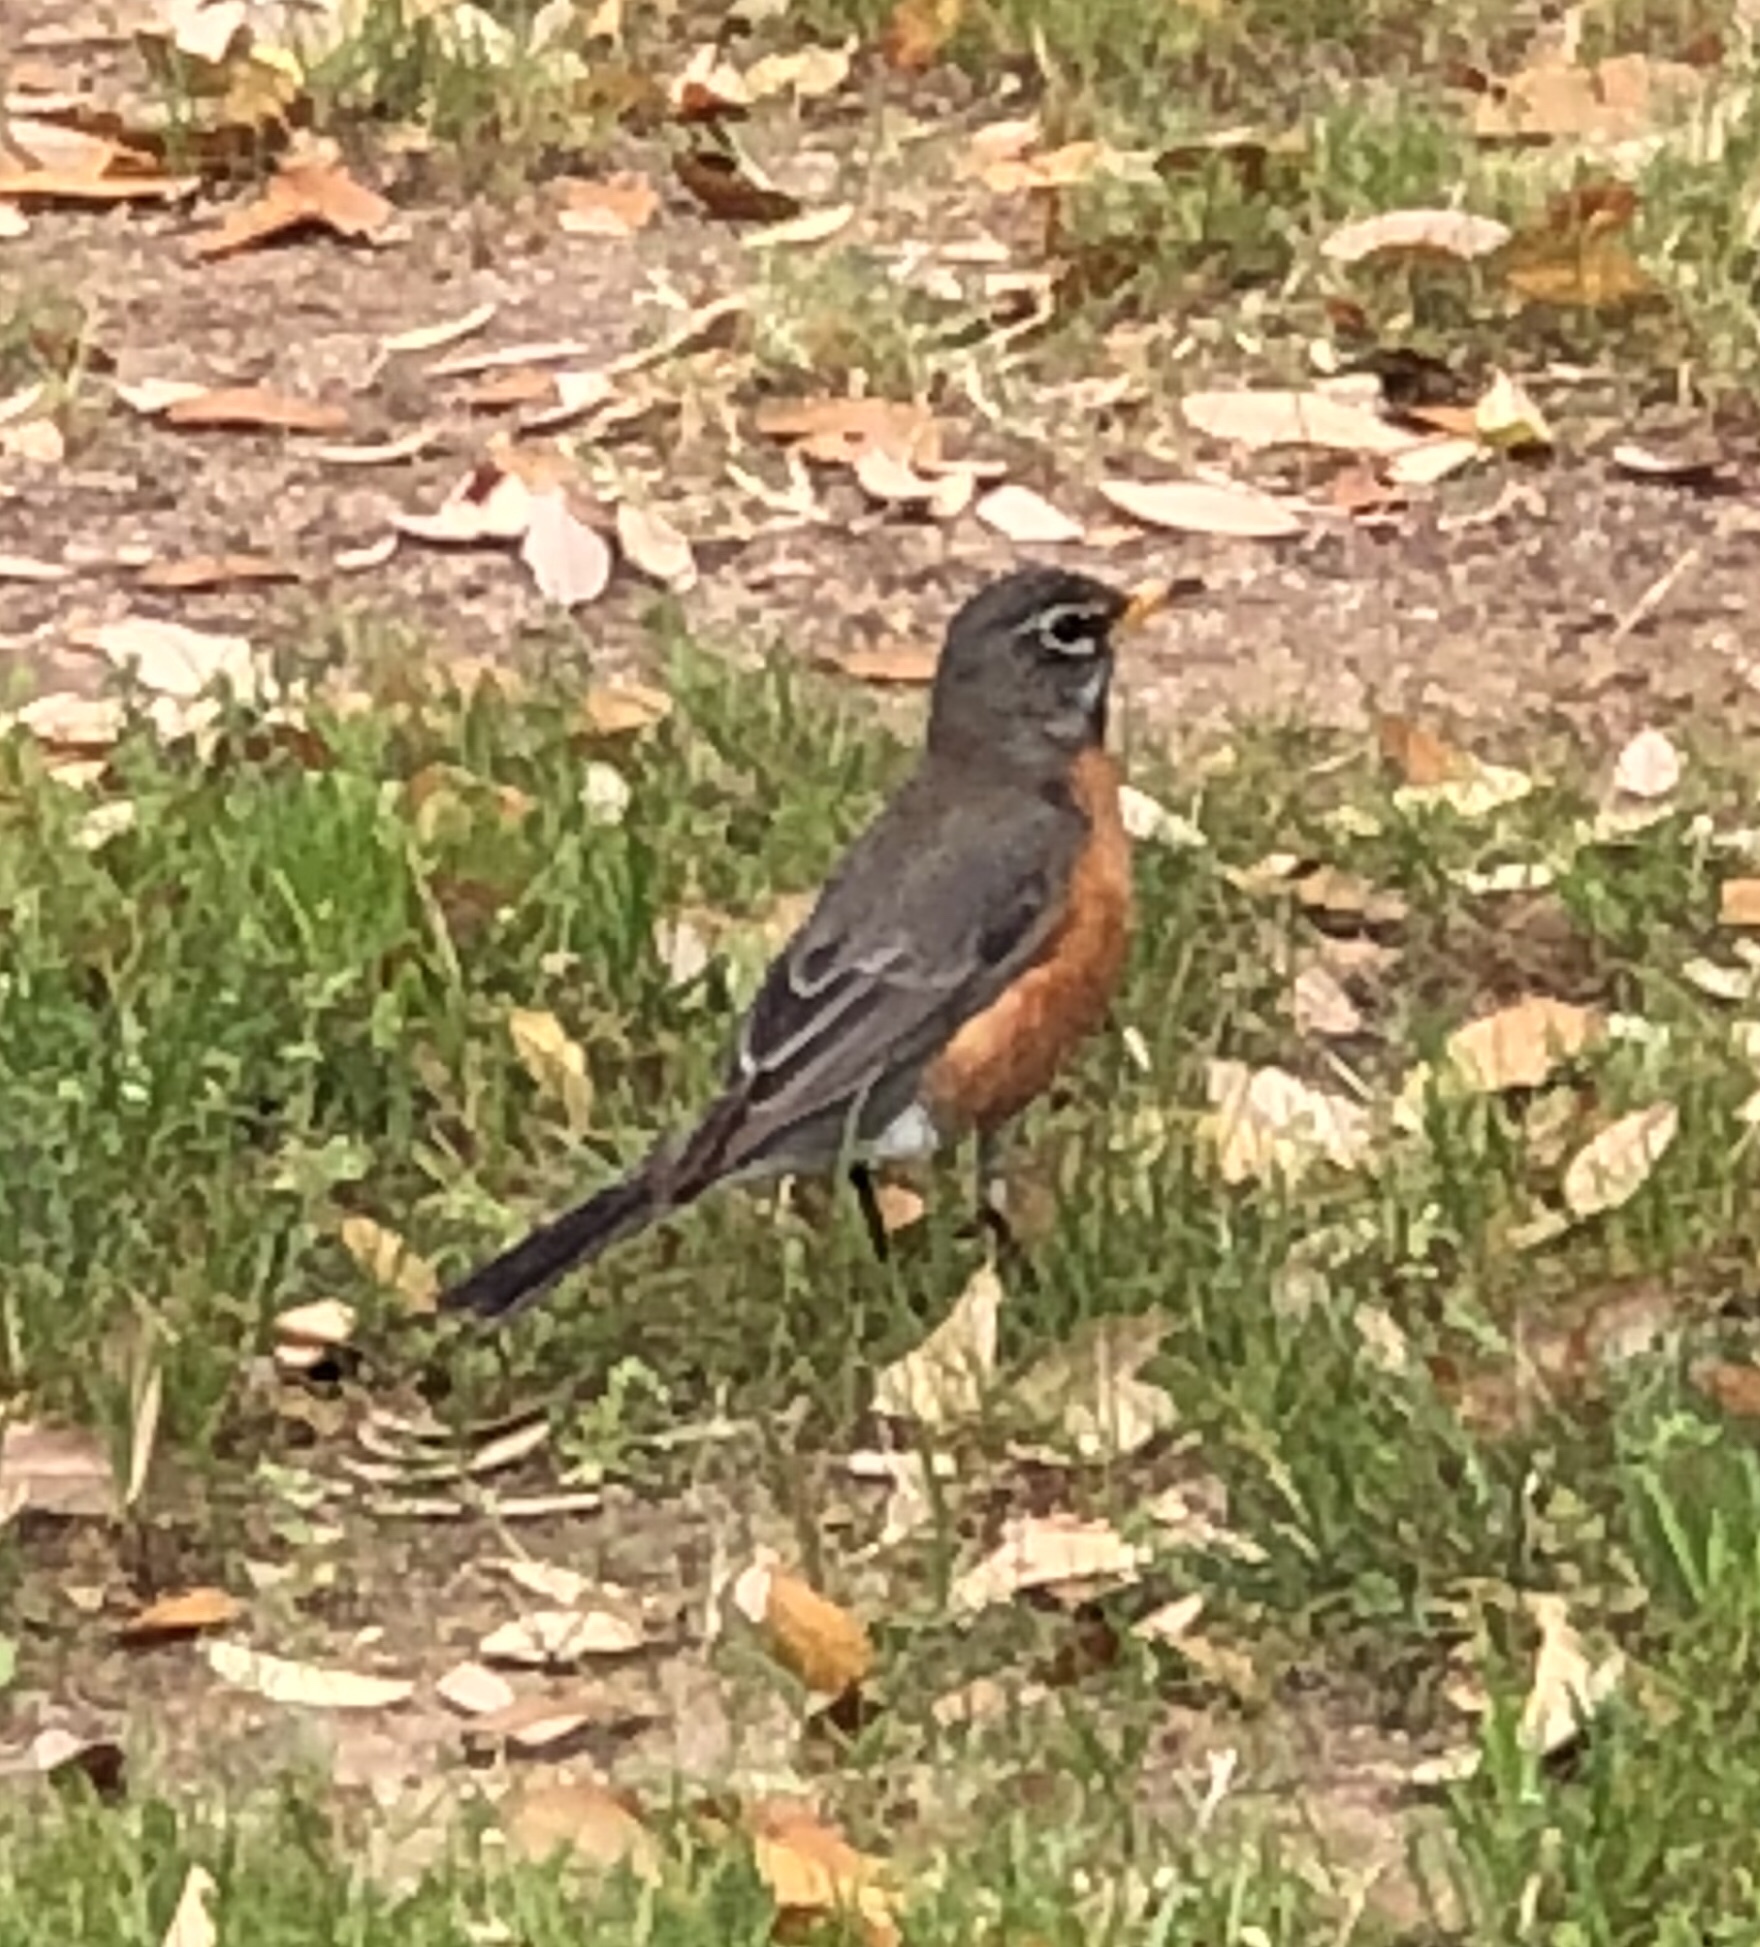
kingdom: Animalia
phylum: Chordata
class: Aves
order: Passeriformes
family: Turdidae
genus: Turdus
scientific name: Turdus migratorius
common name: American robin
